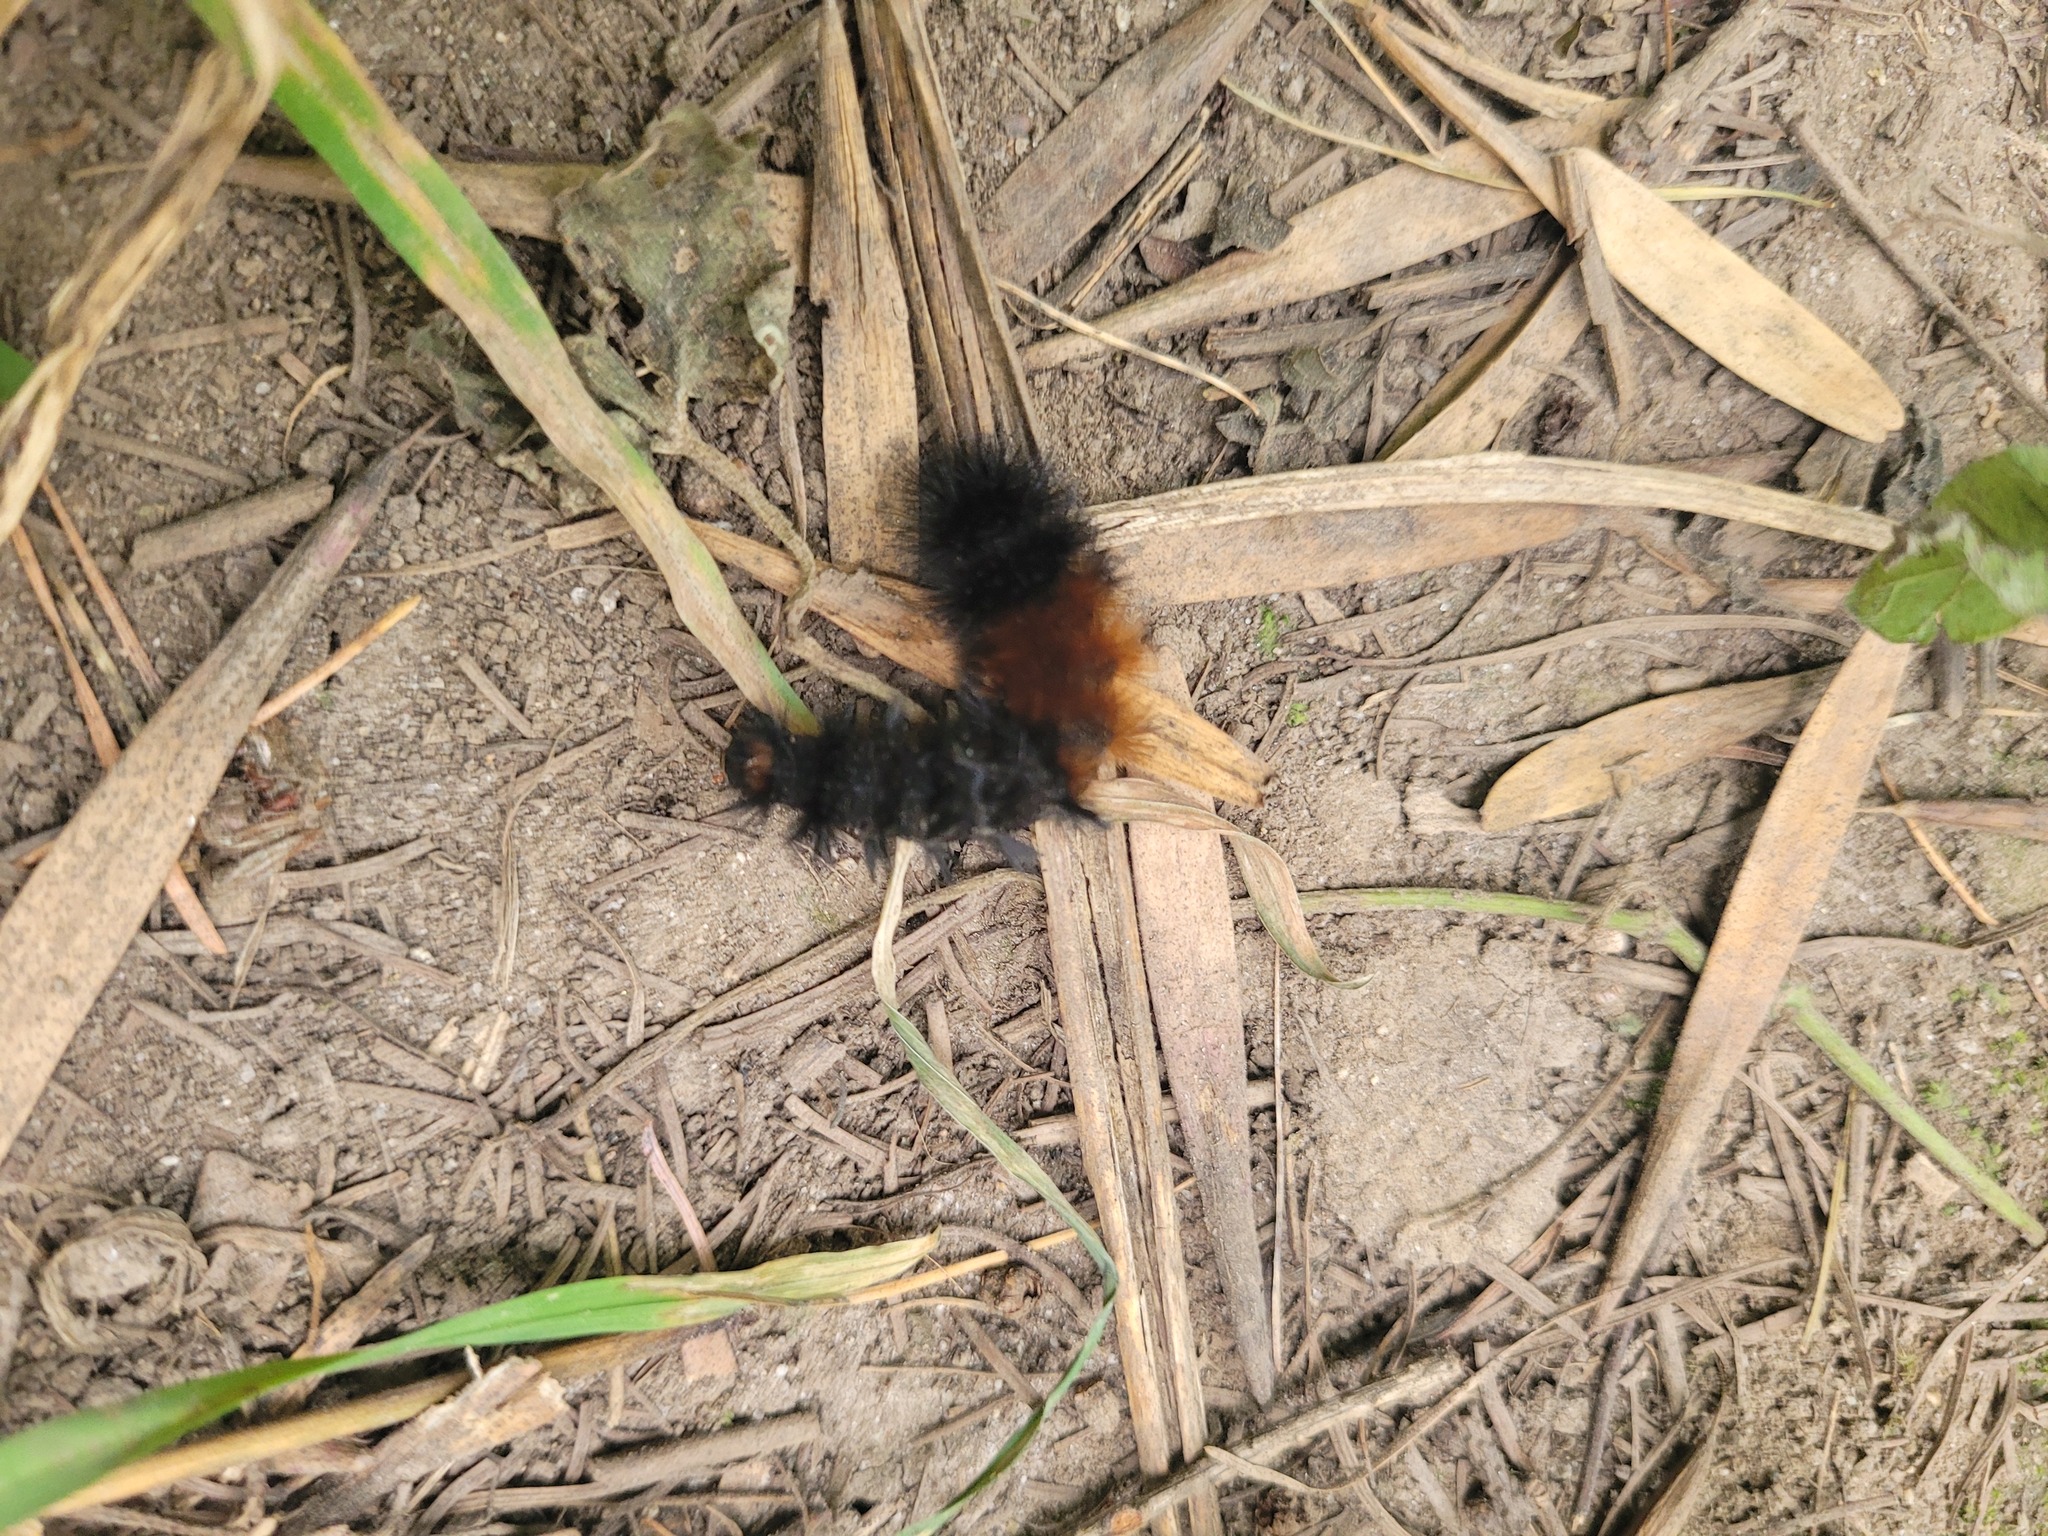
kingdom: Animalia
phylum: Arthropoda
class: Insecta
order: Lepidoptera
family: Erebidae
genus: Pyrrharctia
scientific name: Pyrrharctia isabella
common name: Isabella tiger moth
